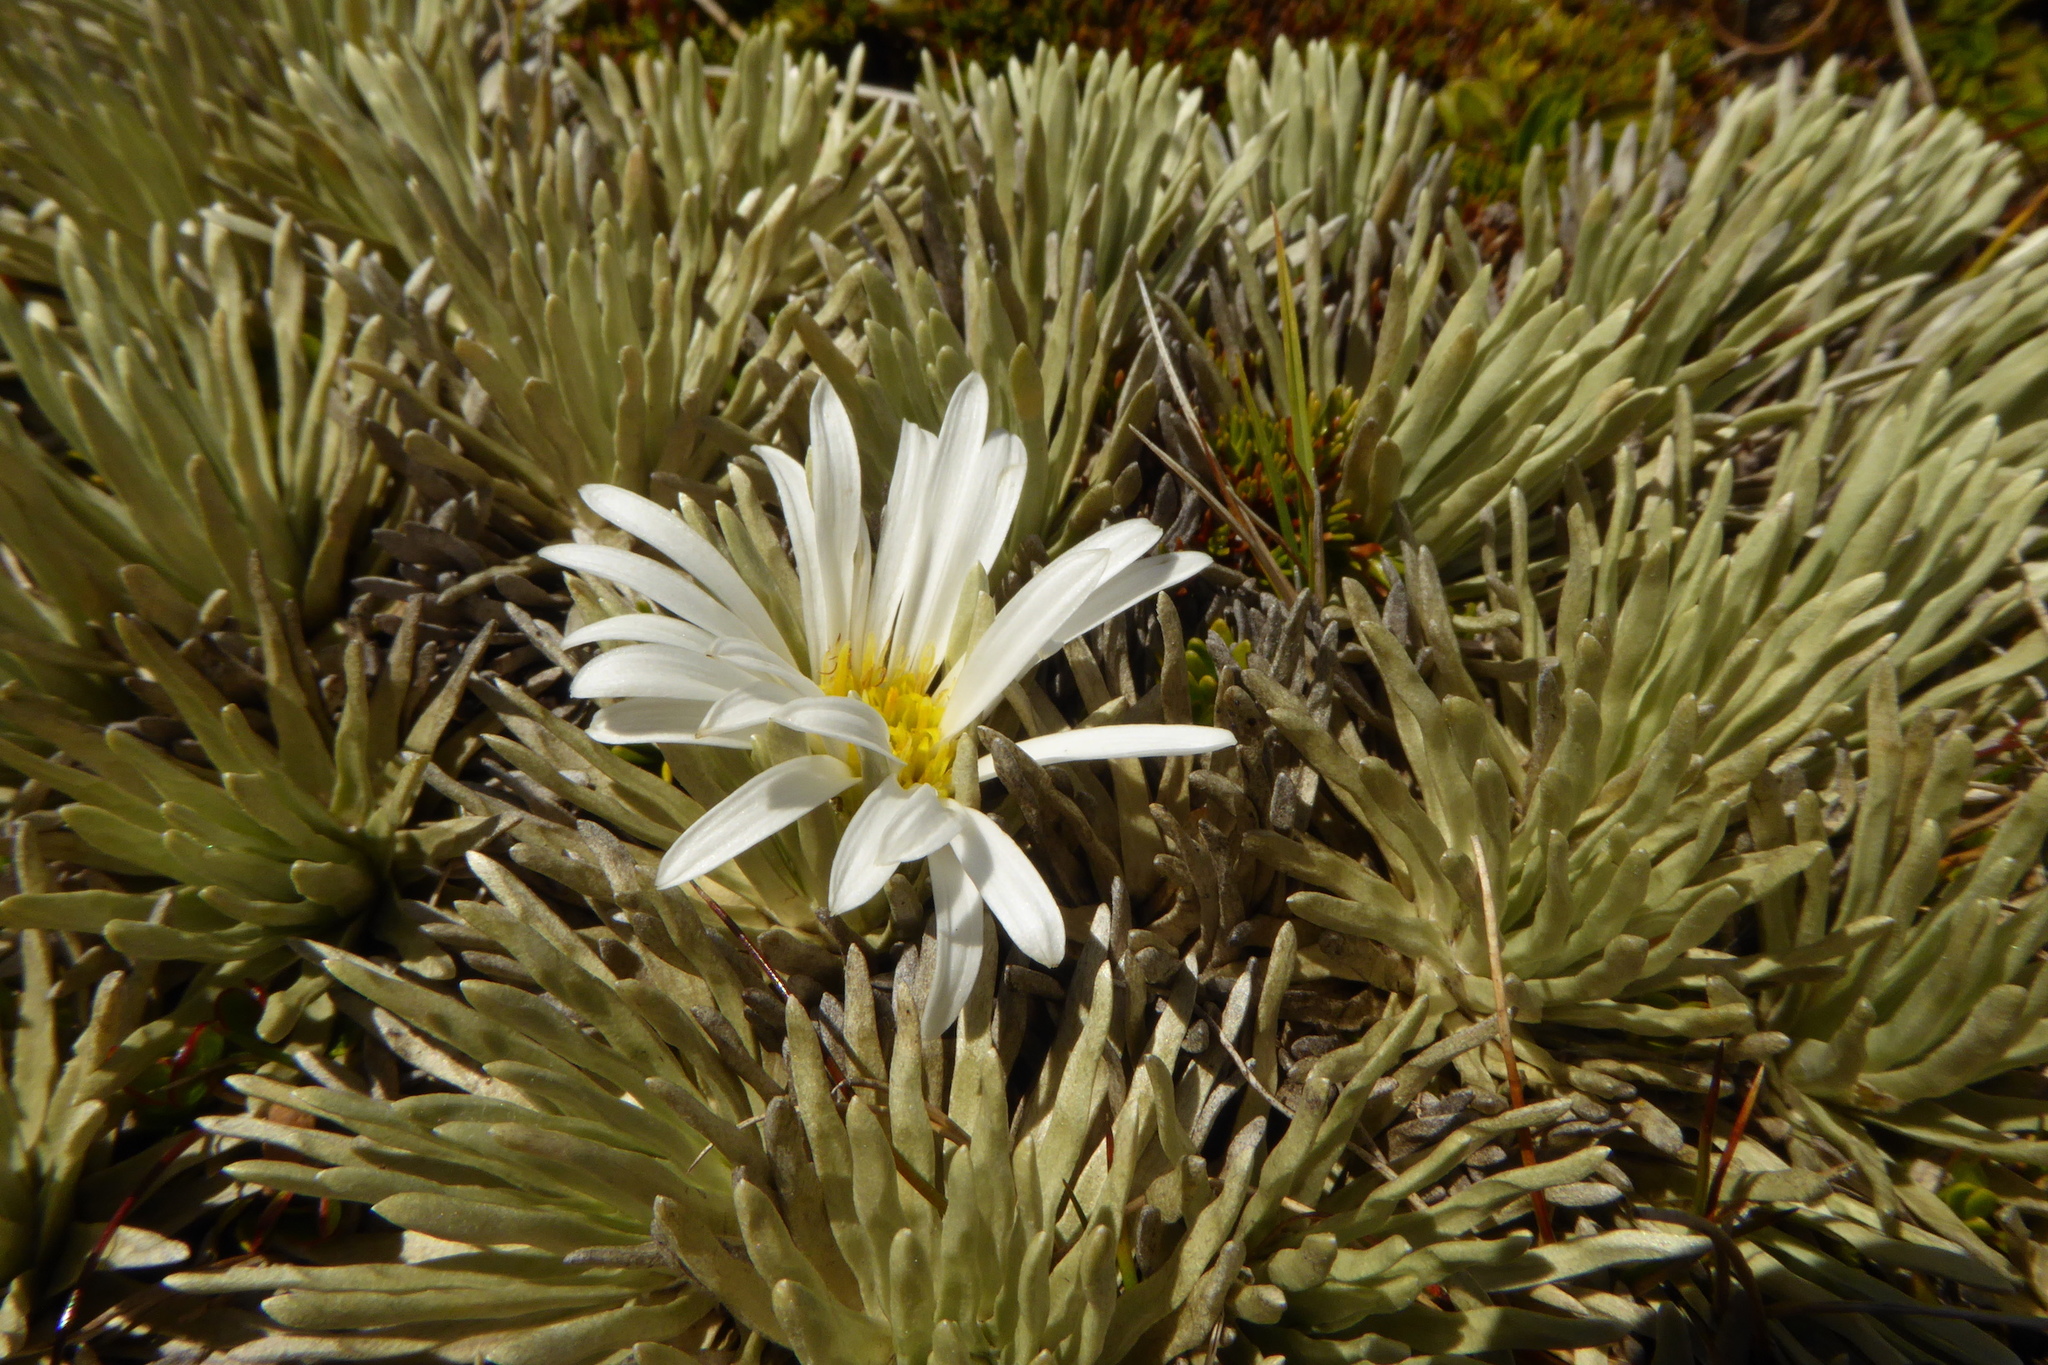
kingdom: Plantae
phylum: Tracheophyta
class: Magnoliopsida
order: Asterales
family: Asteraceae
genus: Celmisia
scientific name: Celmisia sessiliflora
